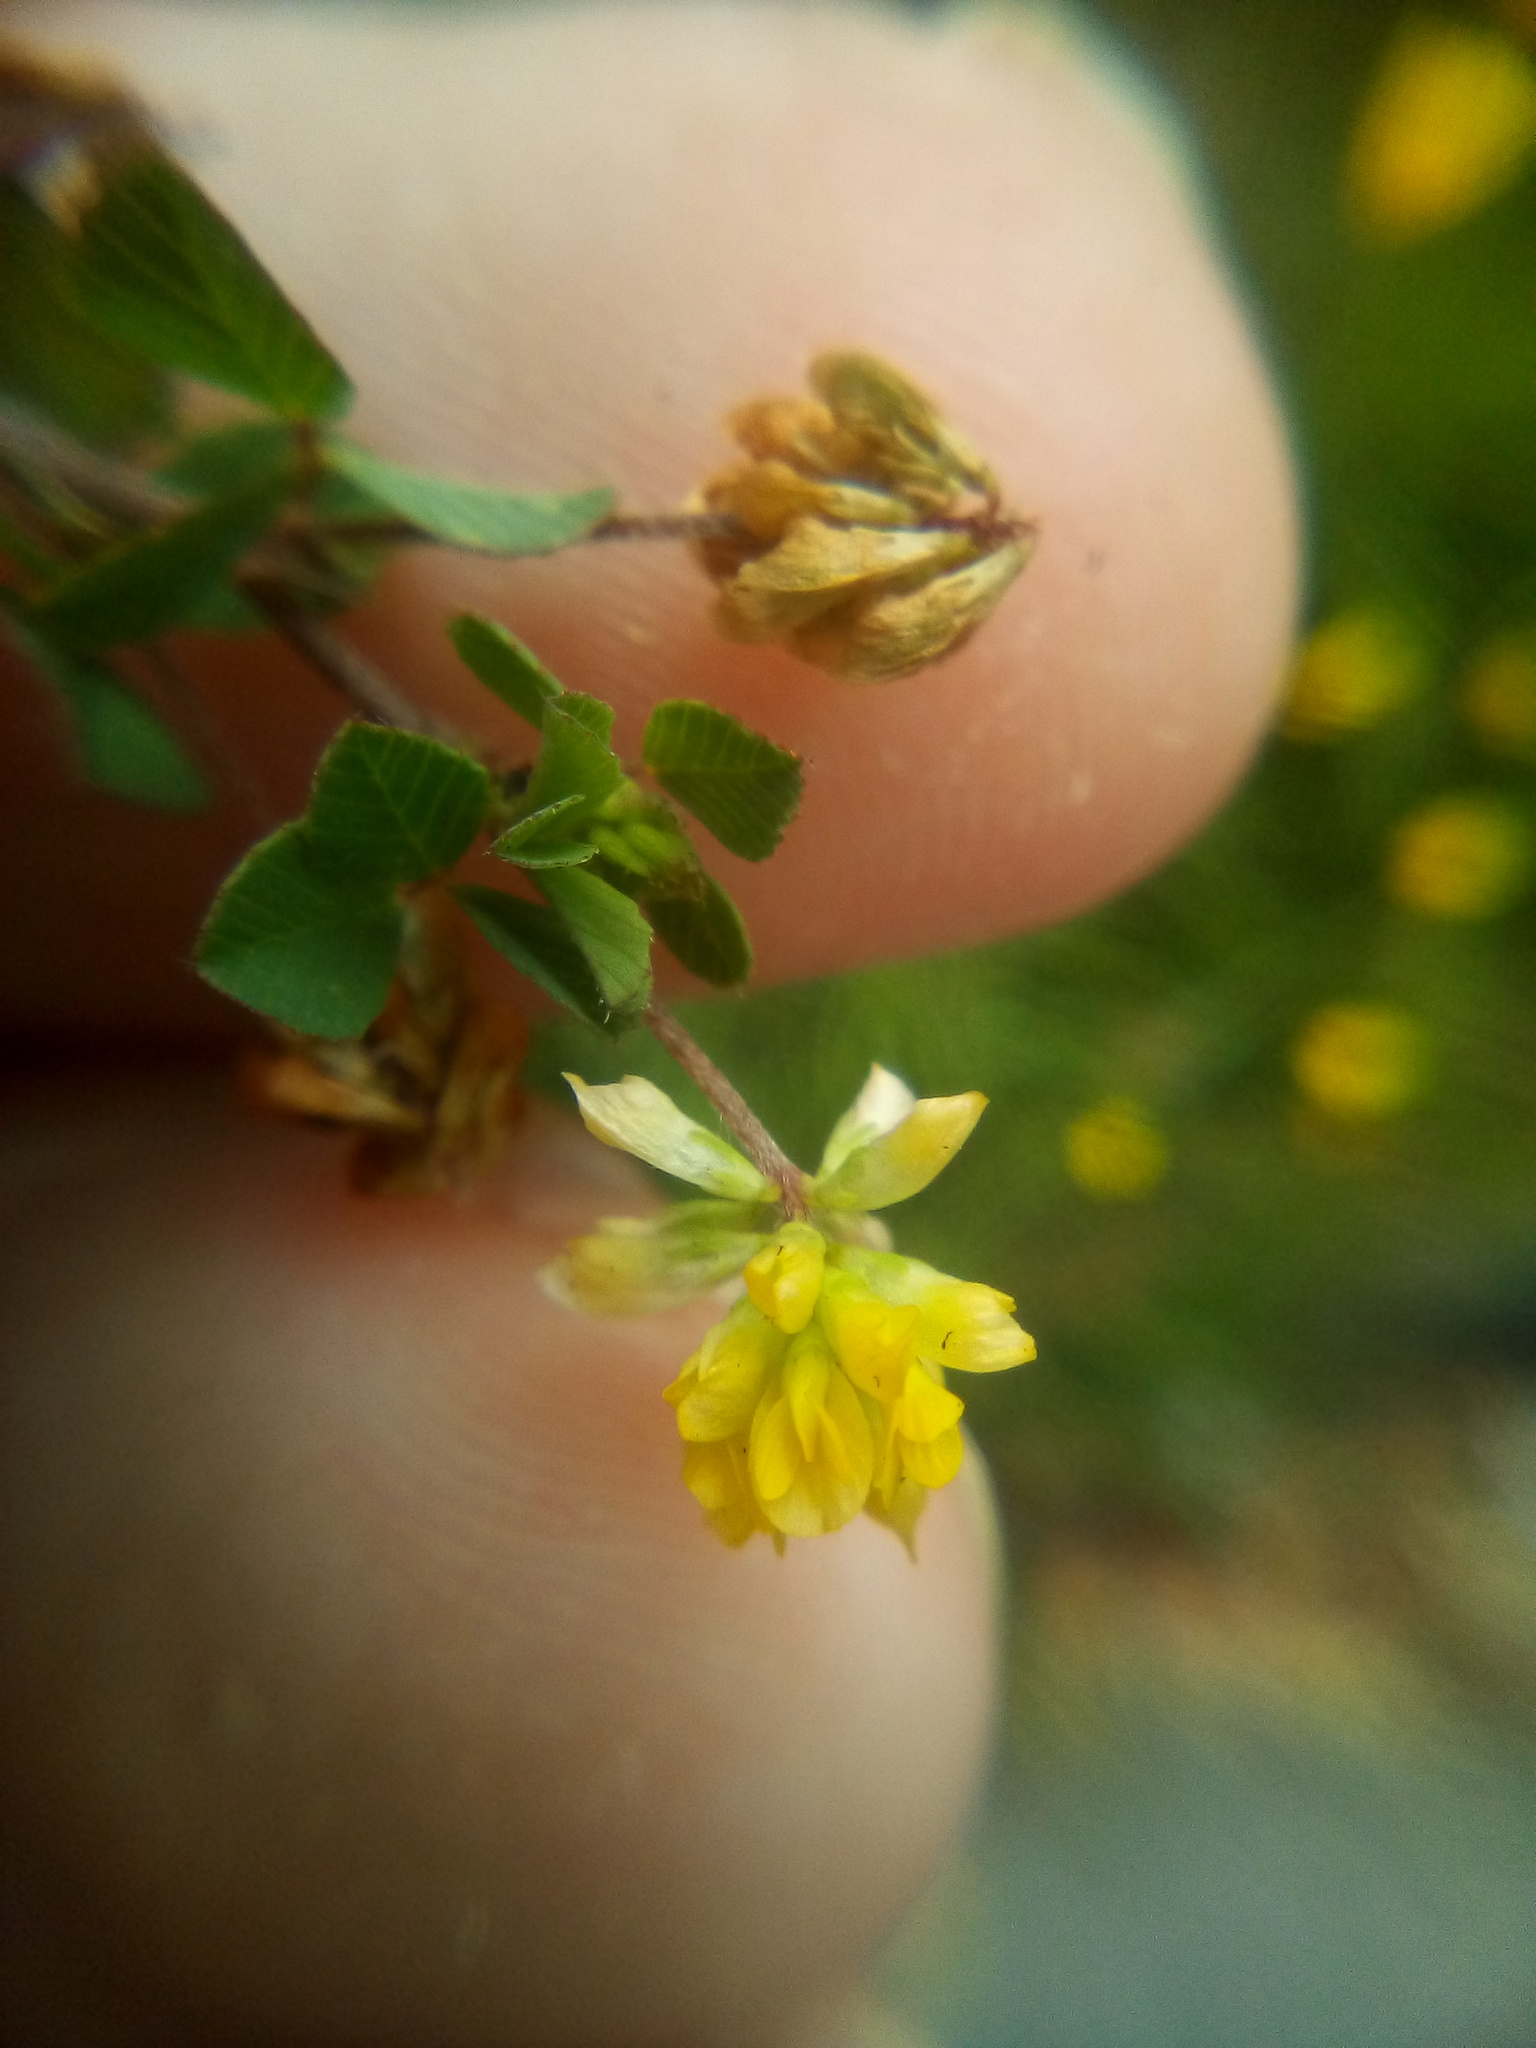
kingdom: Plantae
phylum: Tracheophyta
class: Magnoliopsida
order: Fabales
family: Fabaceae
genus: Trifolium
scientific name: Trifolium dubium
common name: Suckling clover
